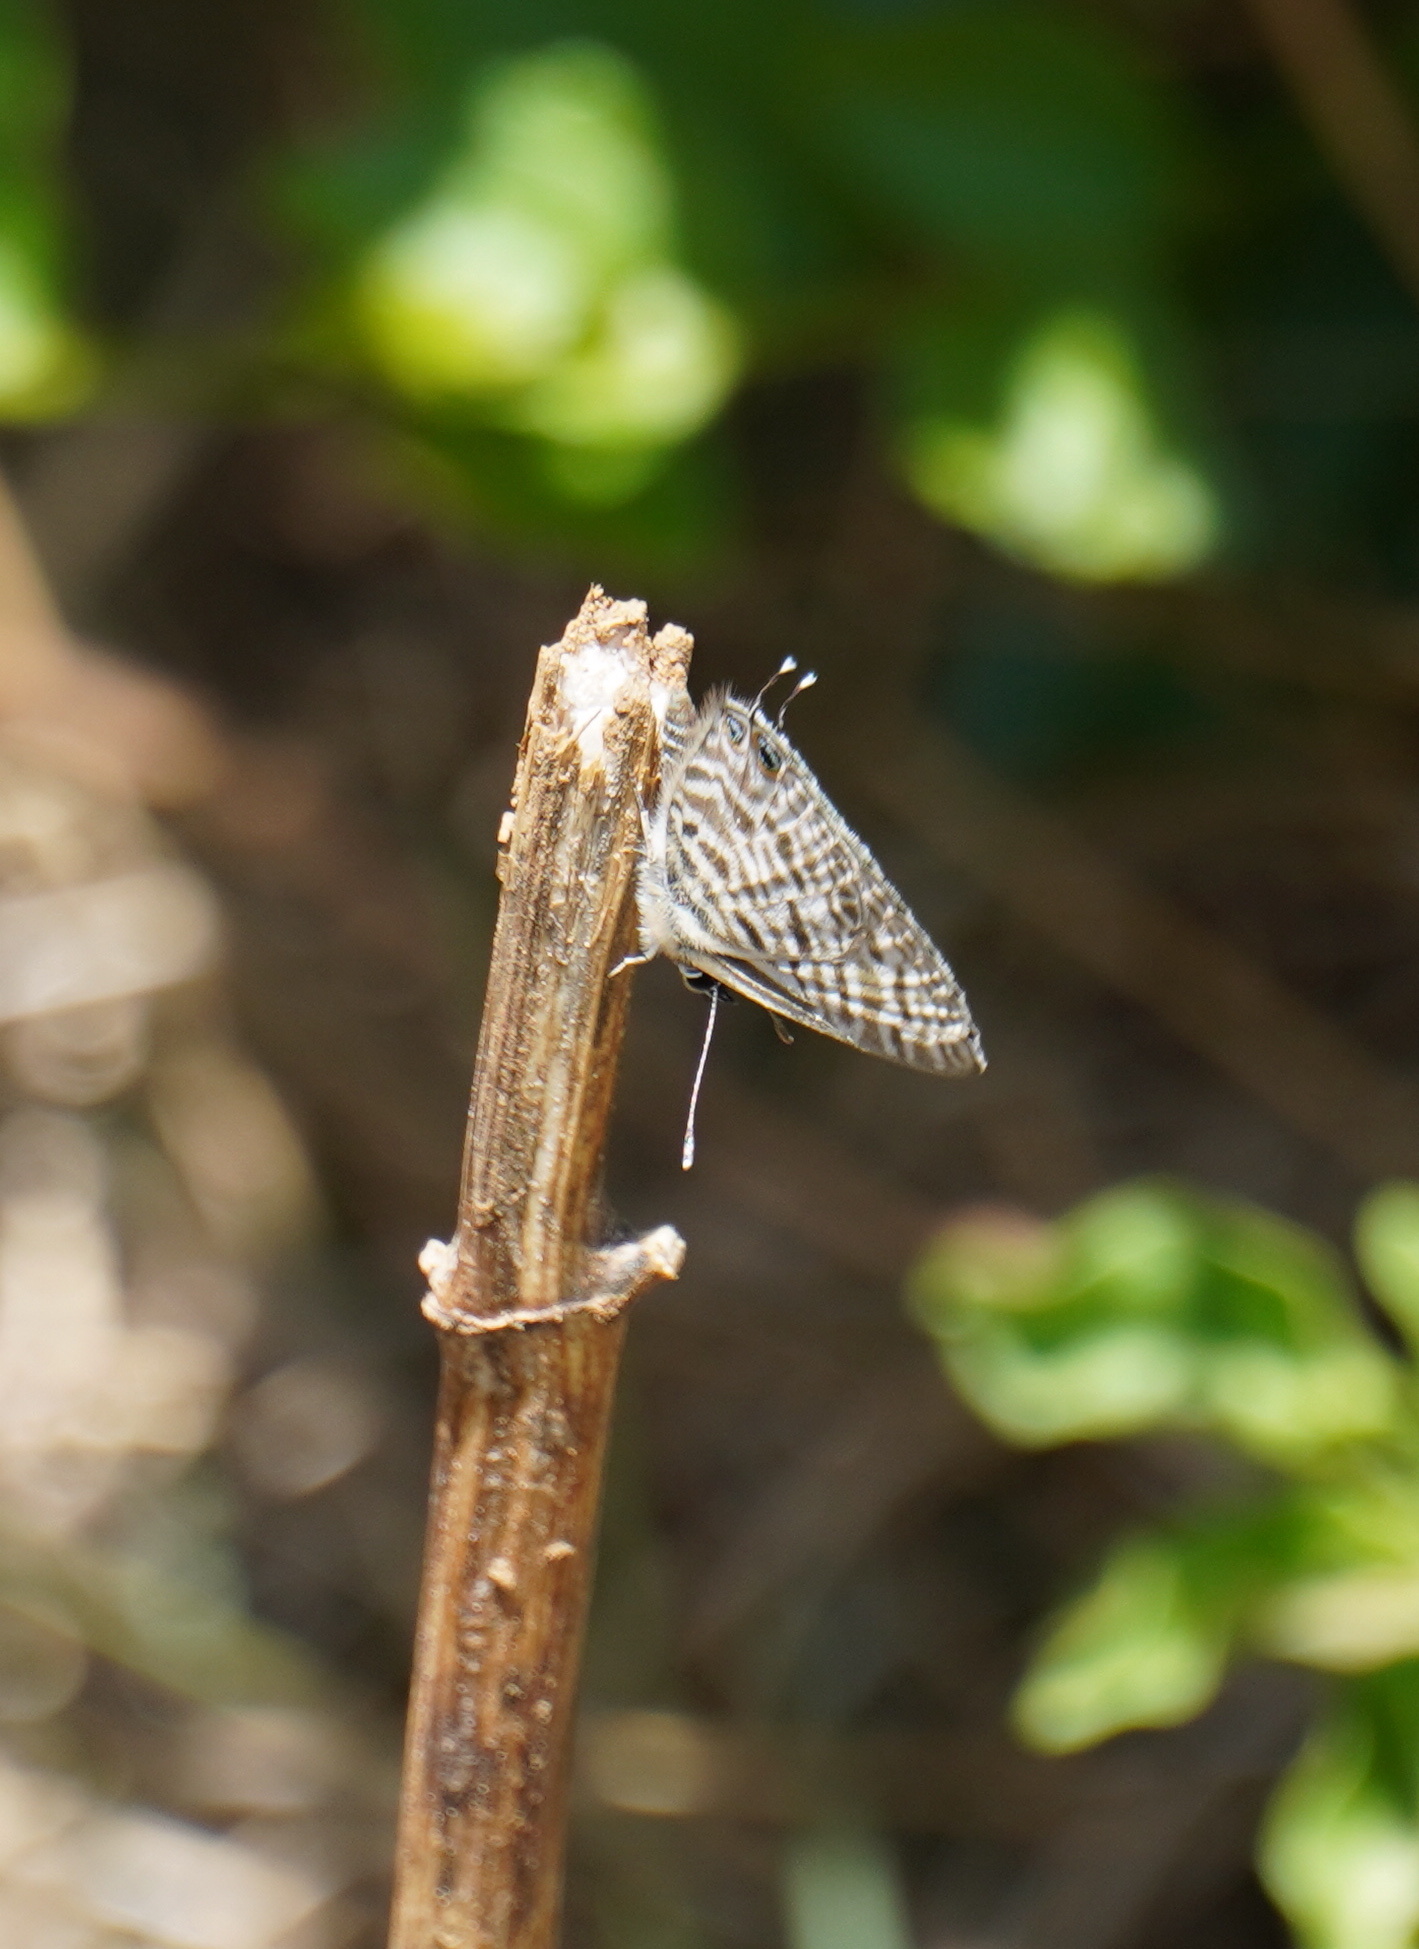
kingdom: Animalia
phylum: Arthropoda
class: Insecta
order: Lepidoptera
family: Lycaenidae
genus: Leptotes
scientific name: Leptotes
